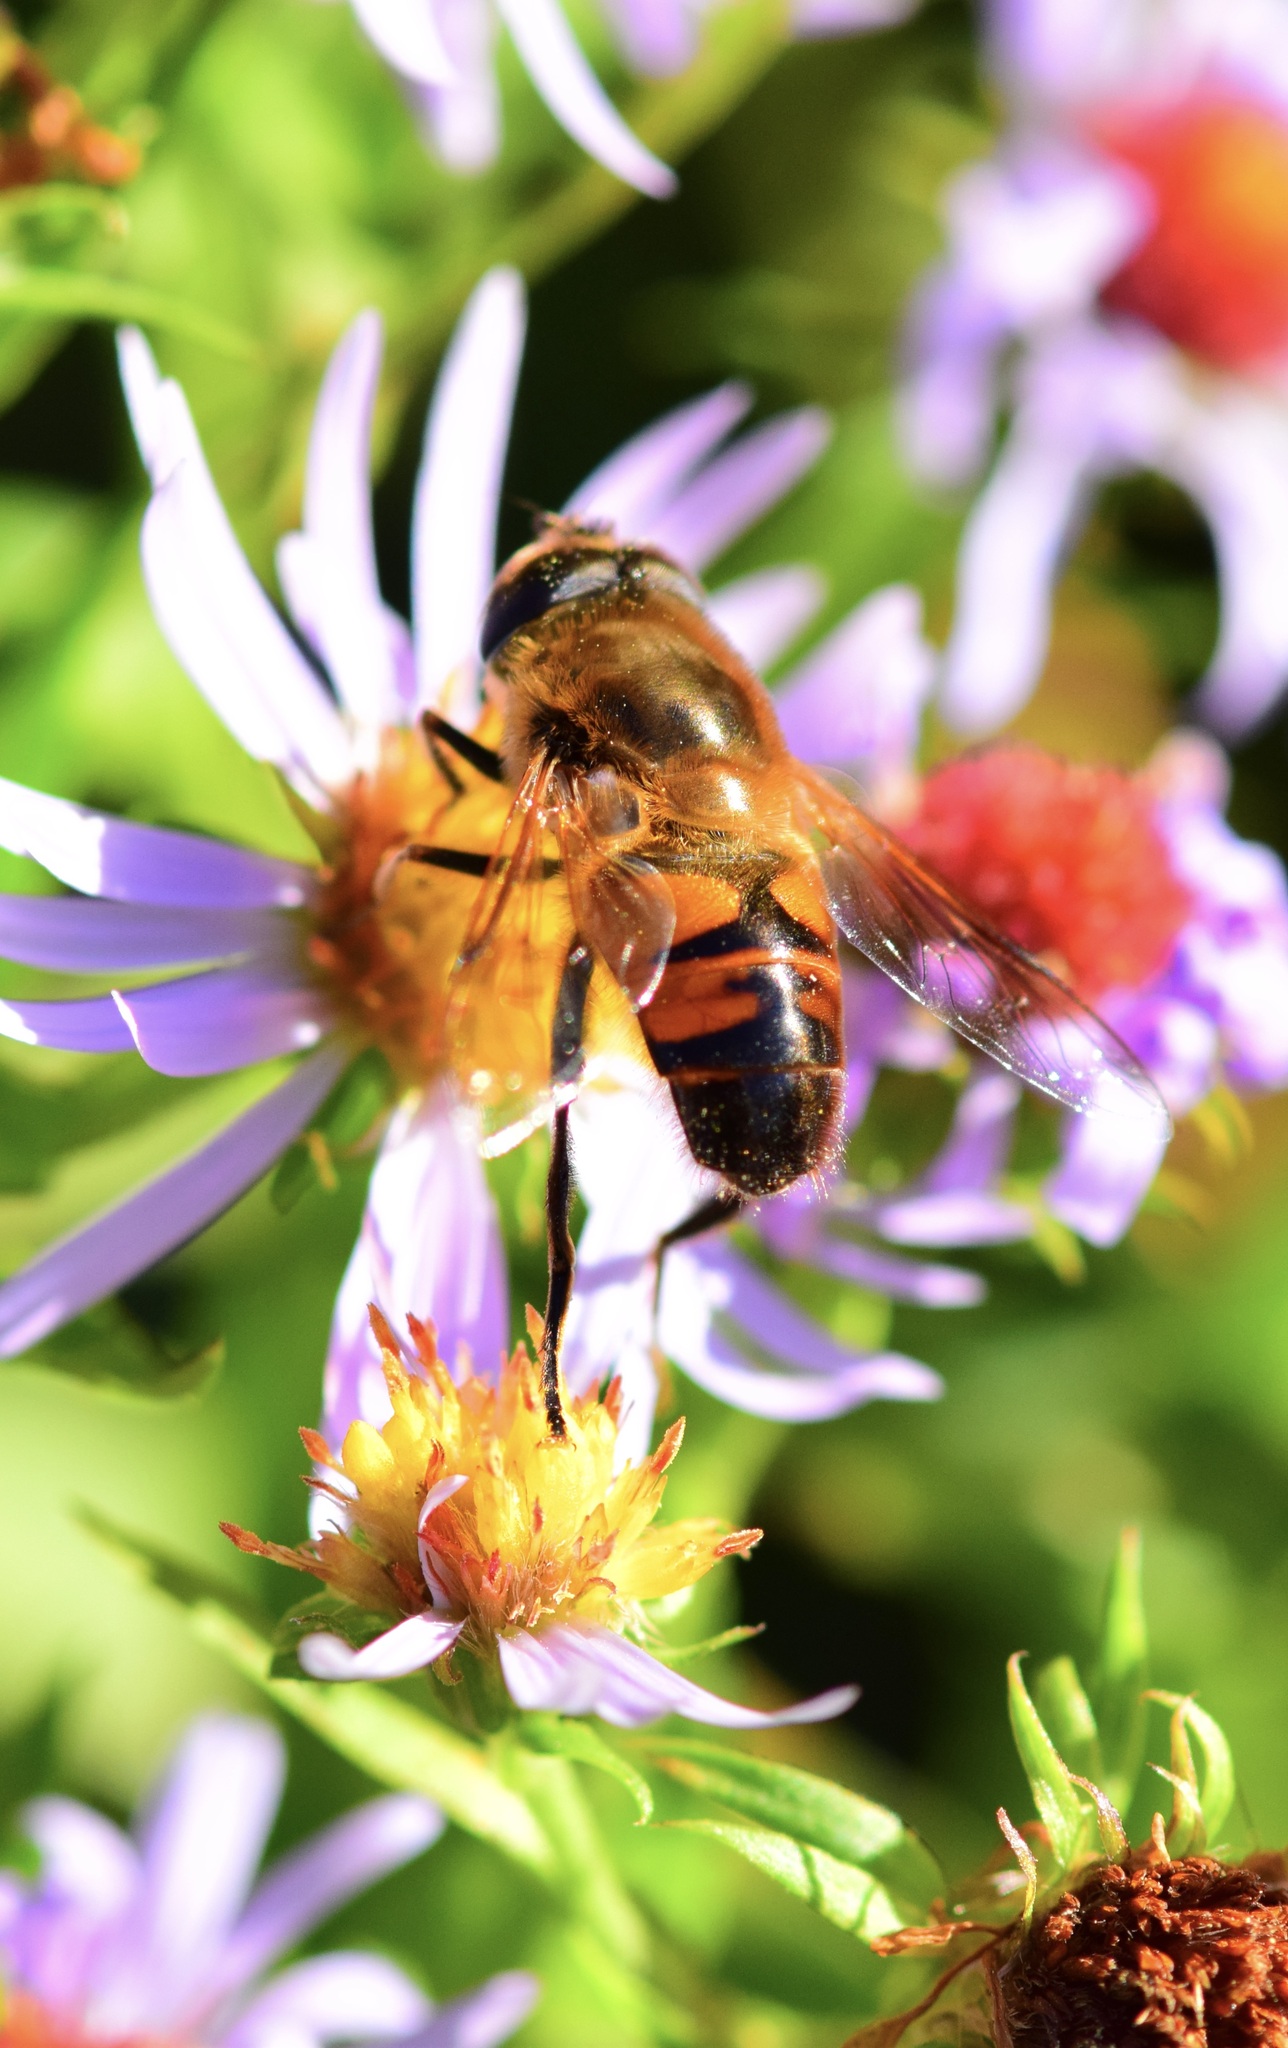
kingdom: Animalia
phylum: Arthropoda
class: Insecta
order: Diptera
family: Syrphidae
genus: Eristalis
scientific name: Eristalis tenax
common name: Drone fly
